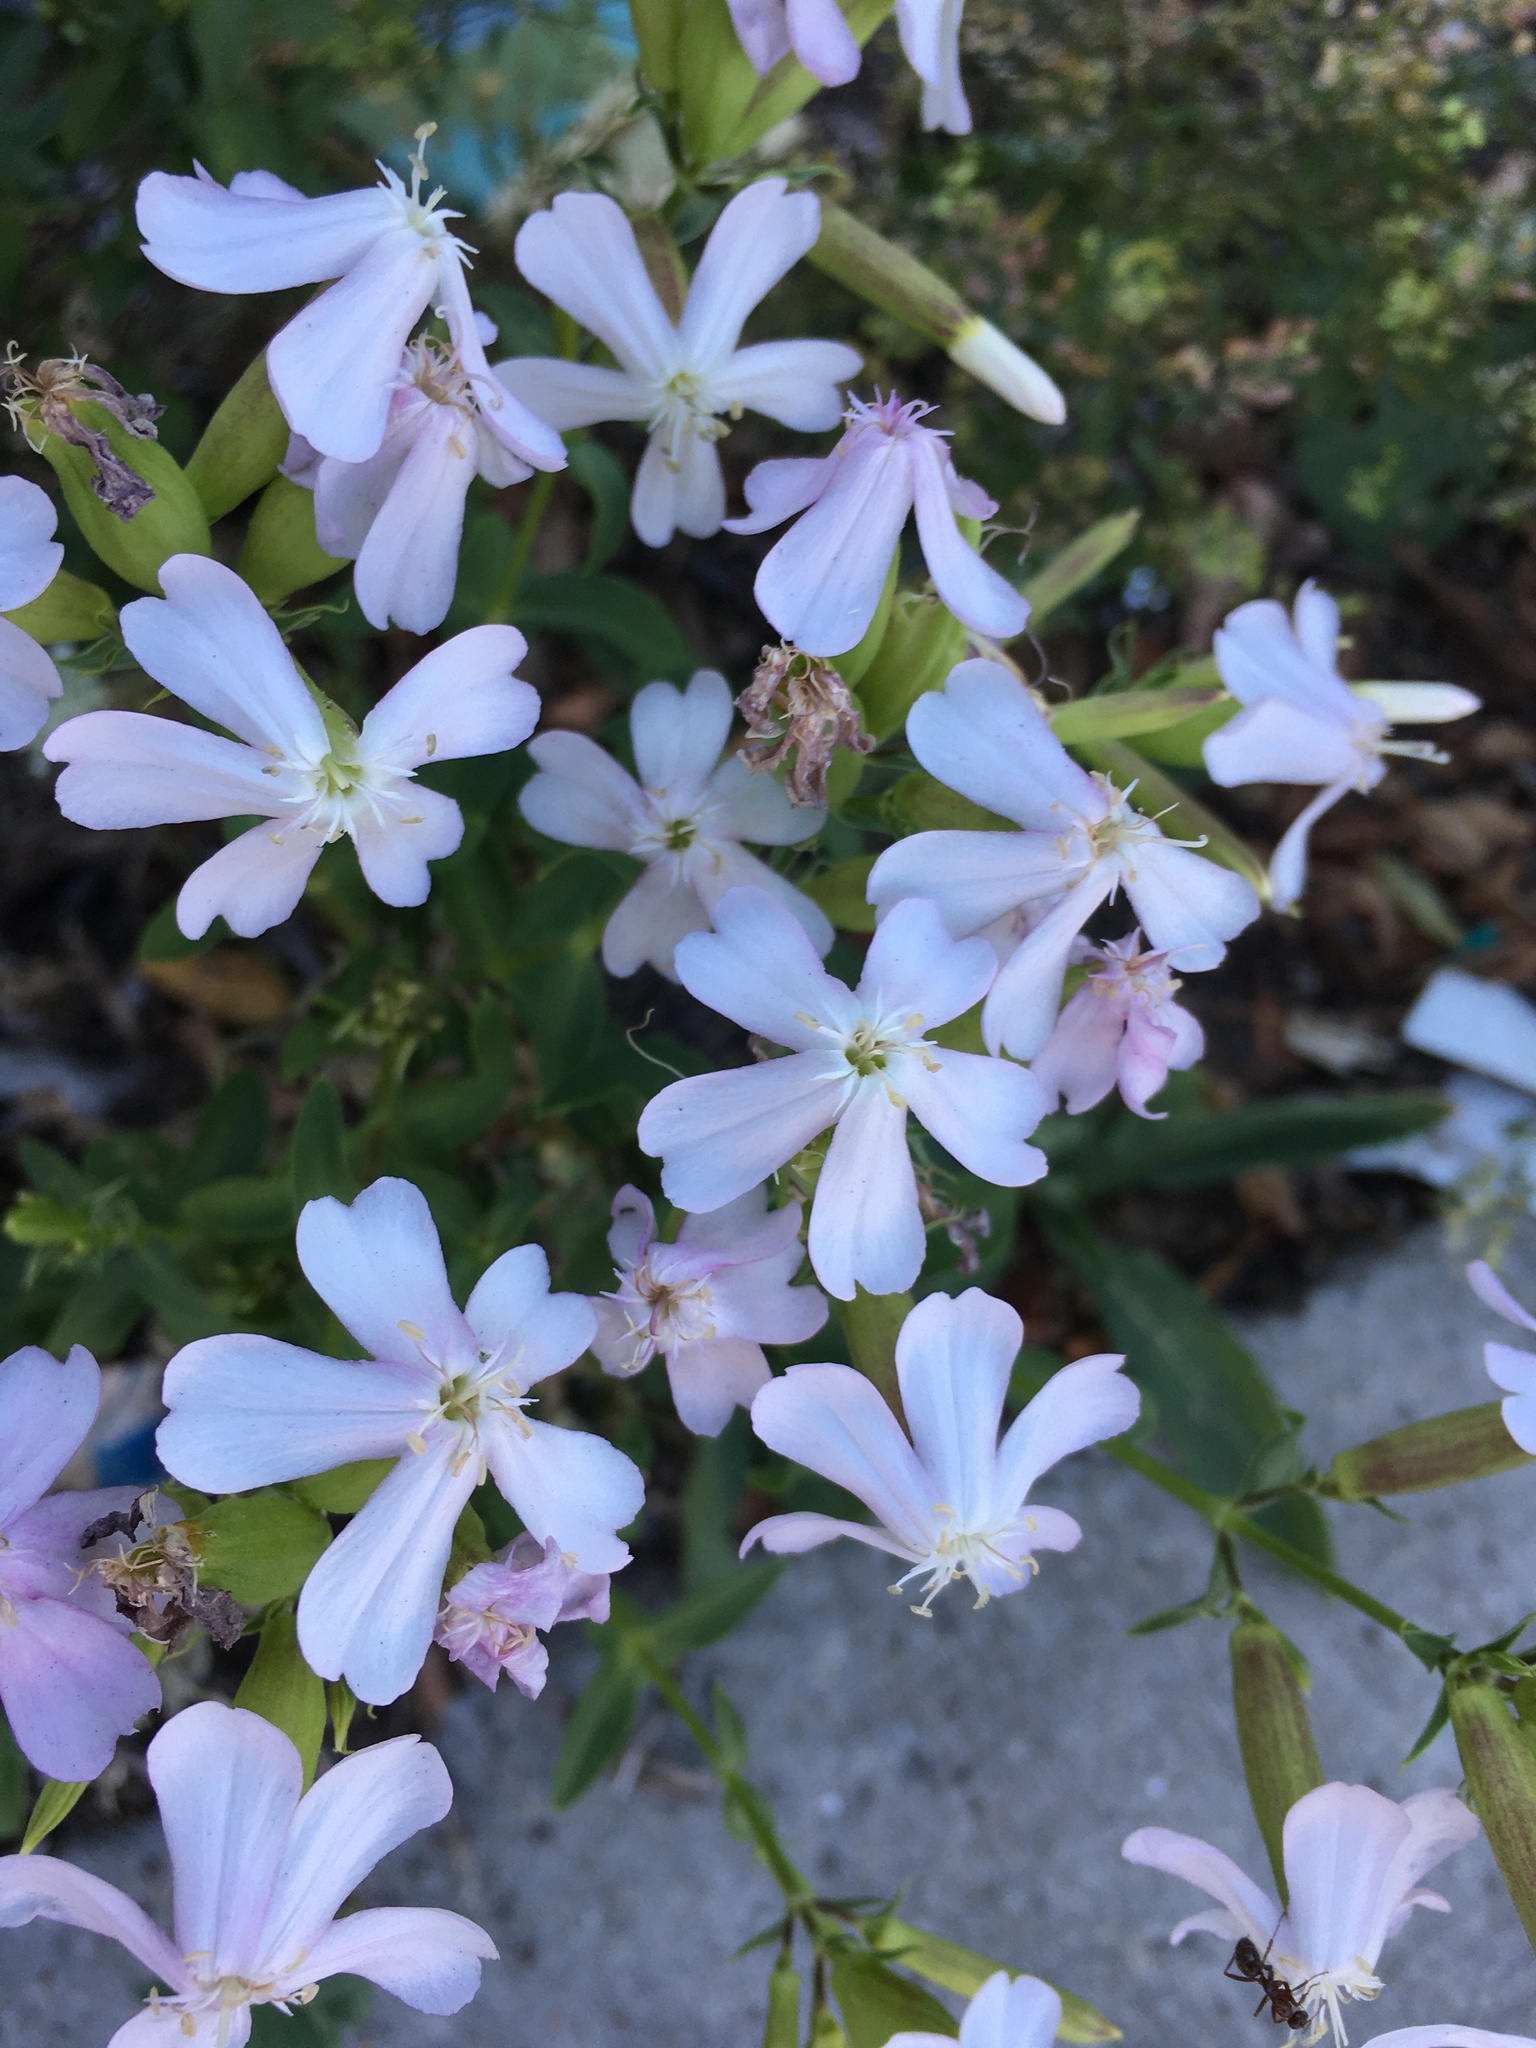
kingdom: Plantae
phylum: Tracheophyta
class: Magnoliopsida
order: Caryophyllales
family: Caryophyllaceae
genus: Saponaria
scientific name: Saponaria officinalis
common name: Soapwort
